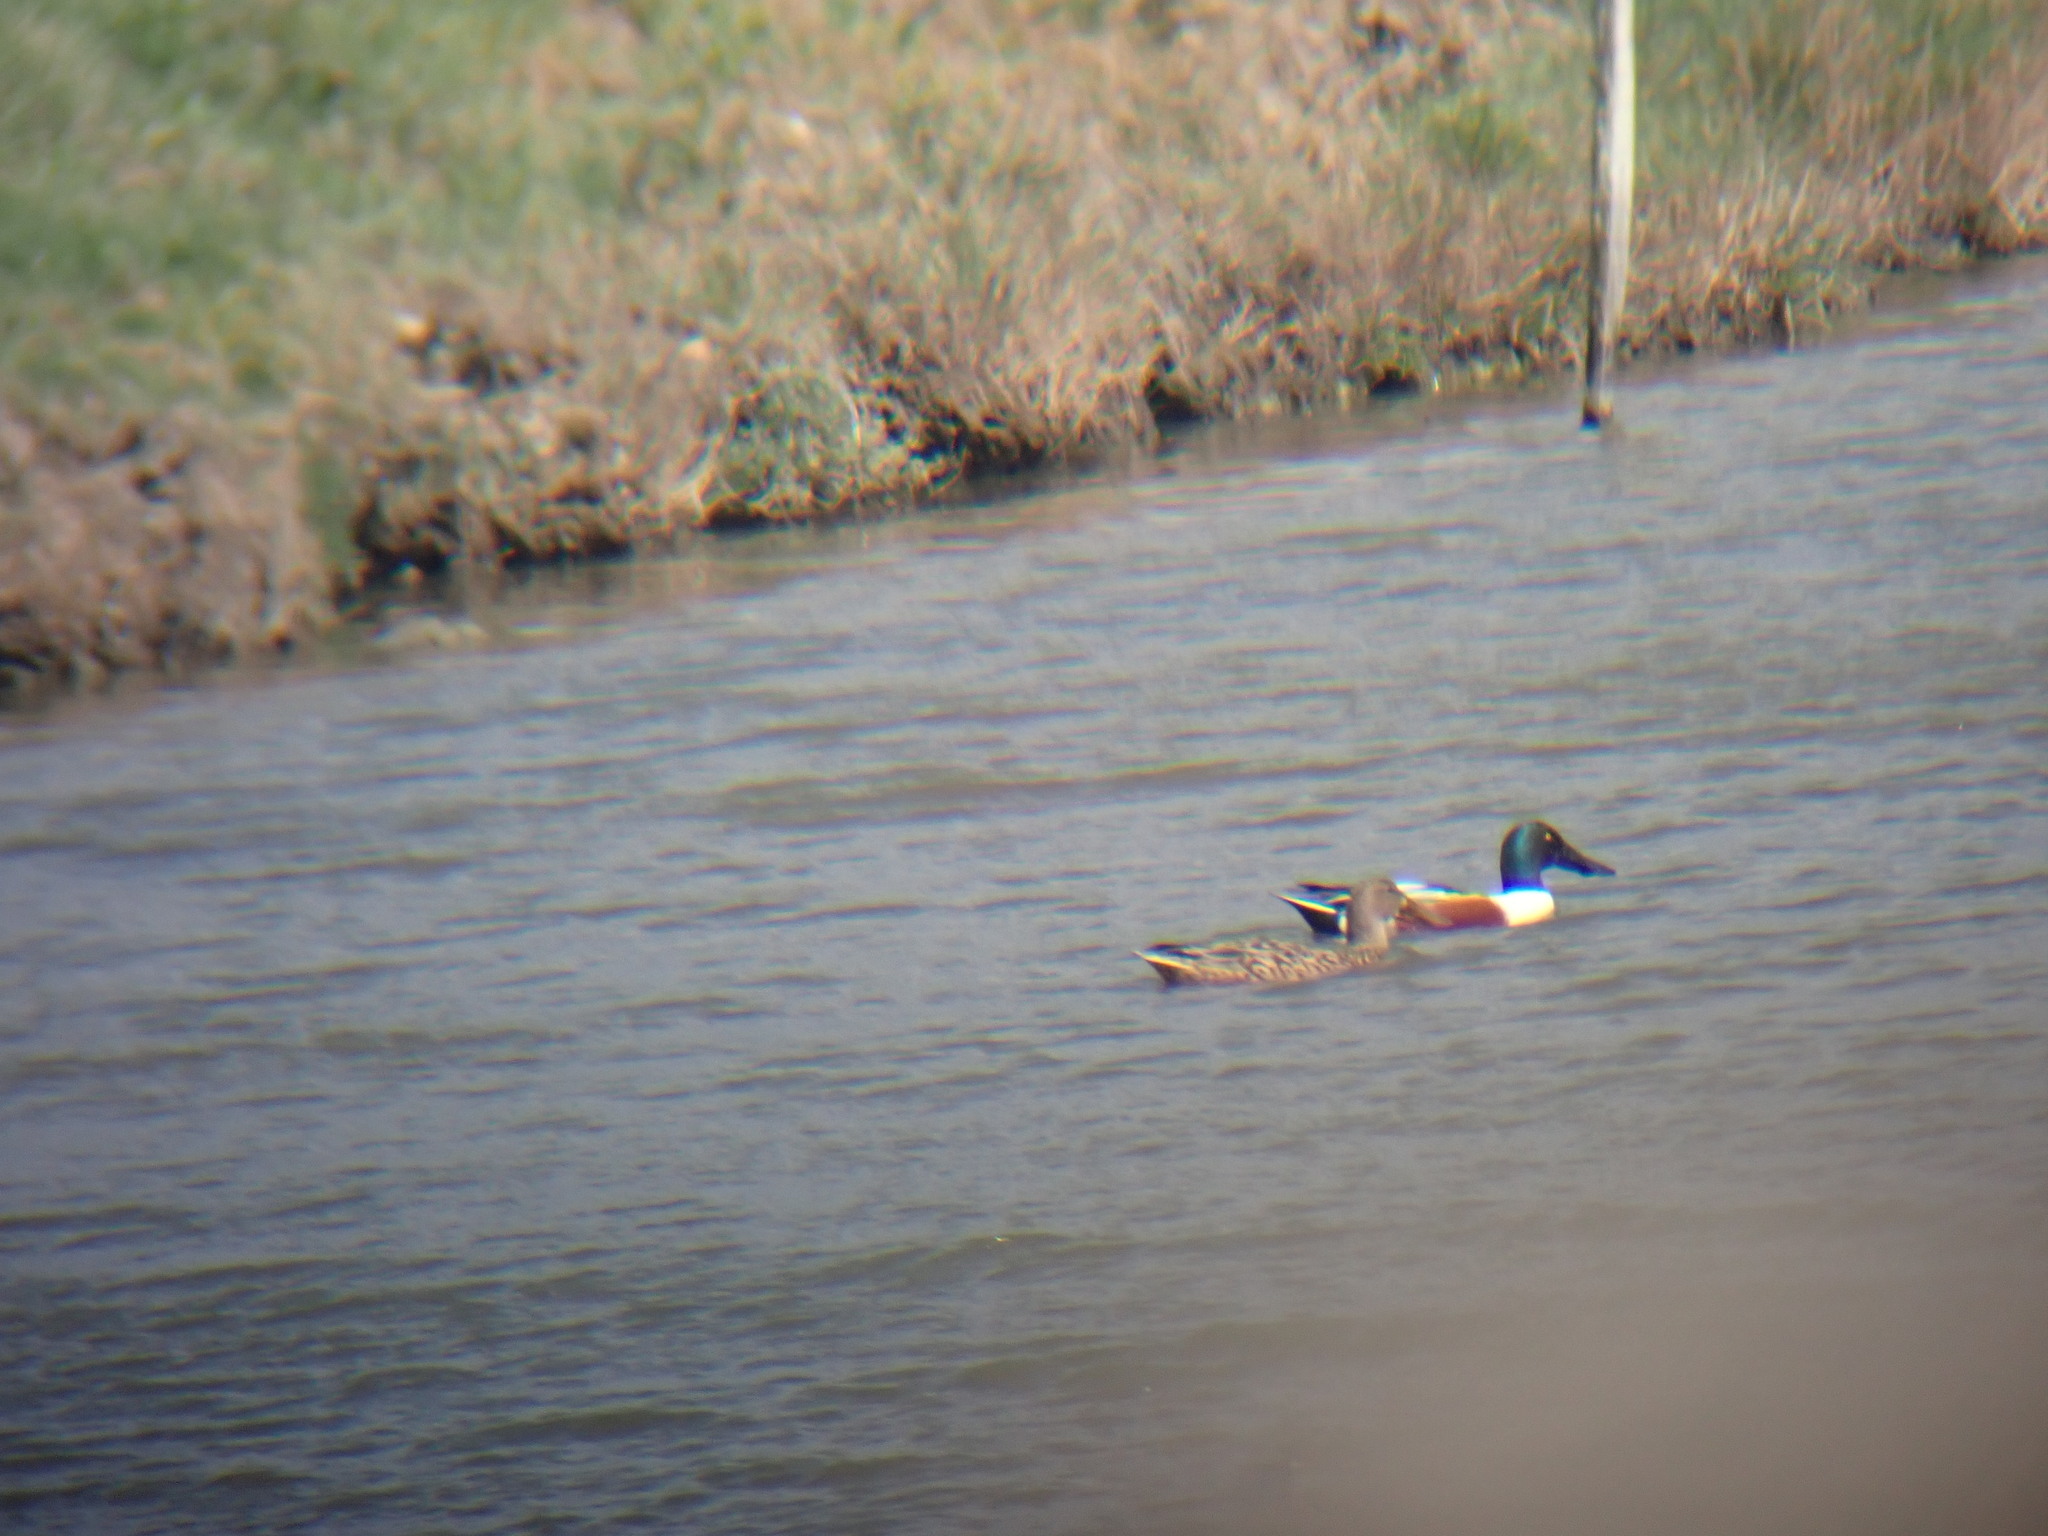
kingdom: Animalia
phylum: Chordata
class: Aves
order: Anseriformes
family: Anatidae
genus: Spatula
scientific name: Spatula clypeata
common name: Northern shoveler
